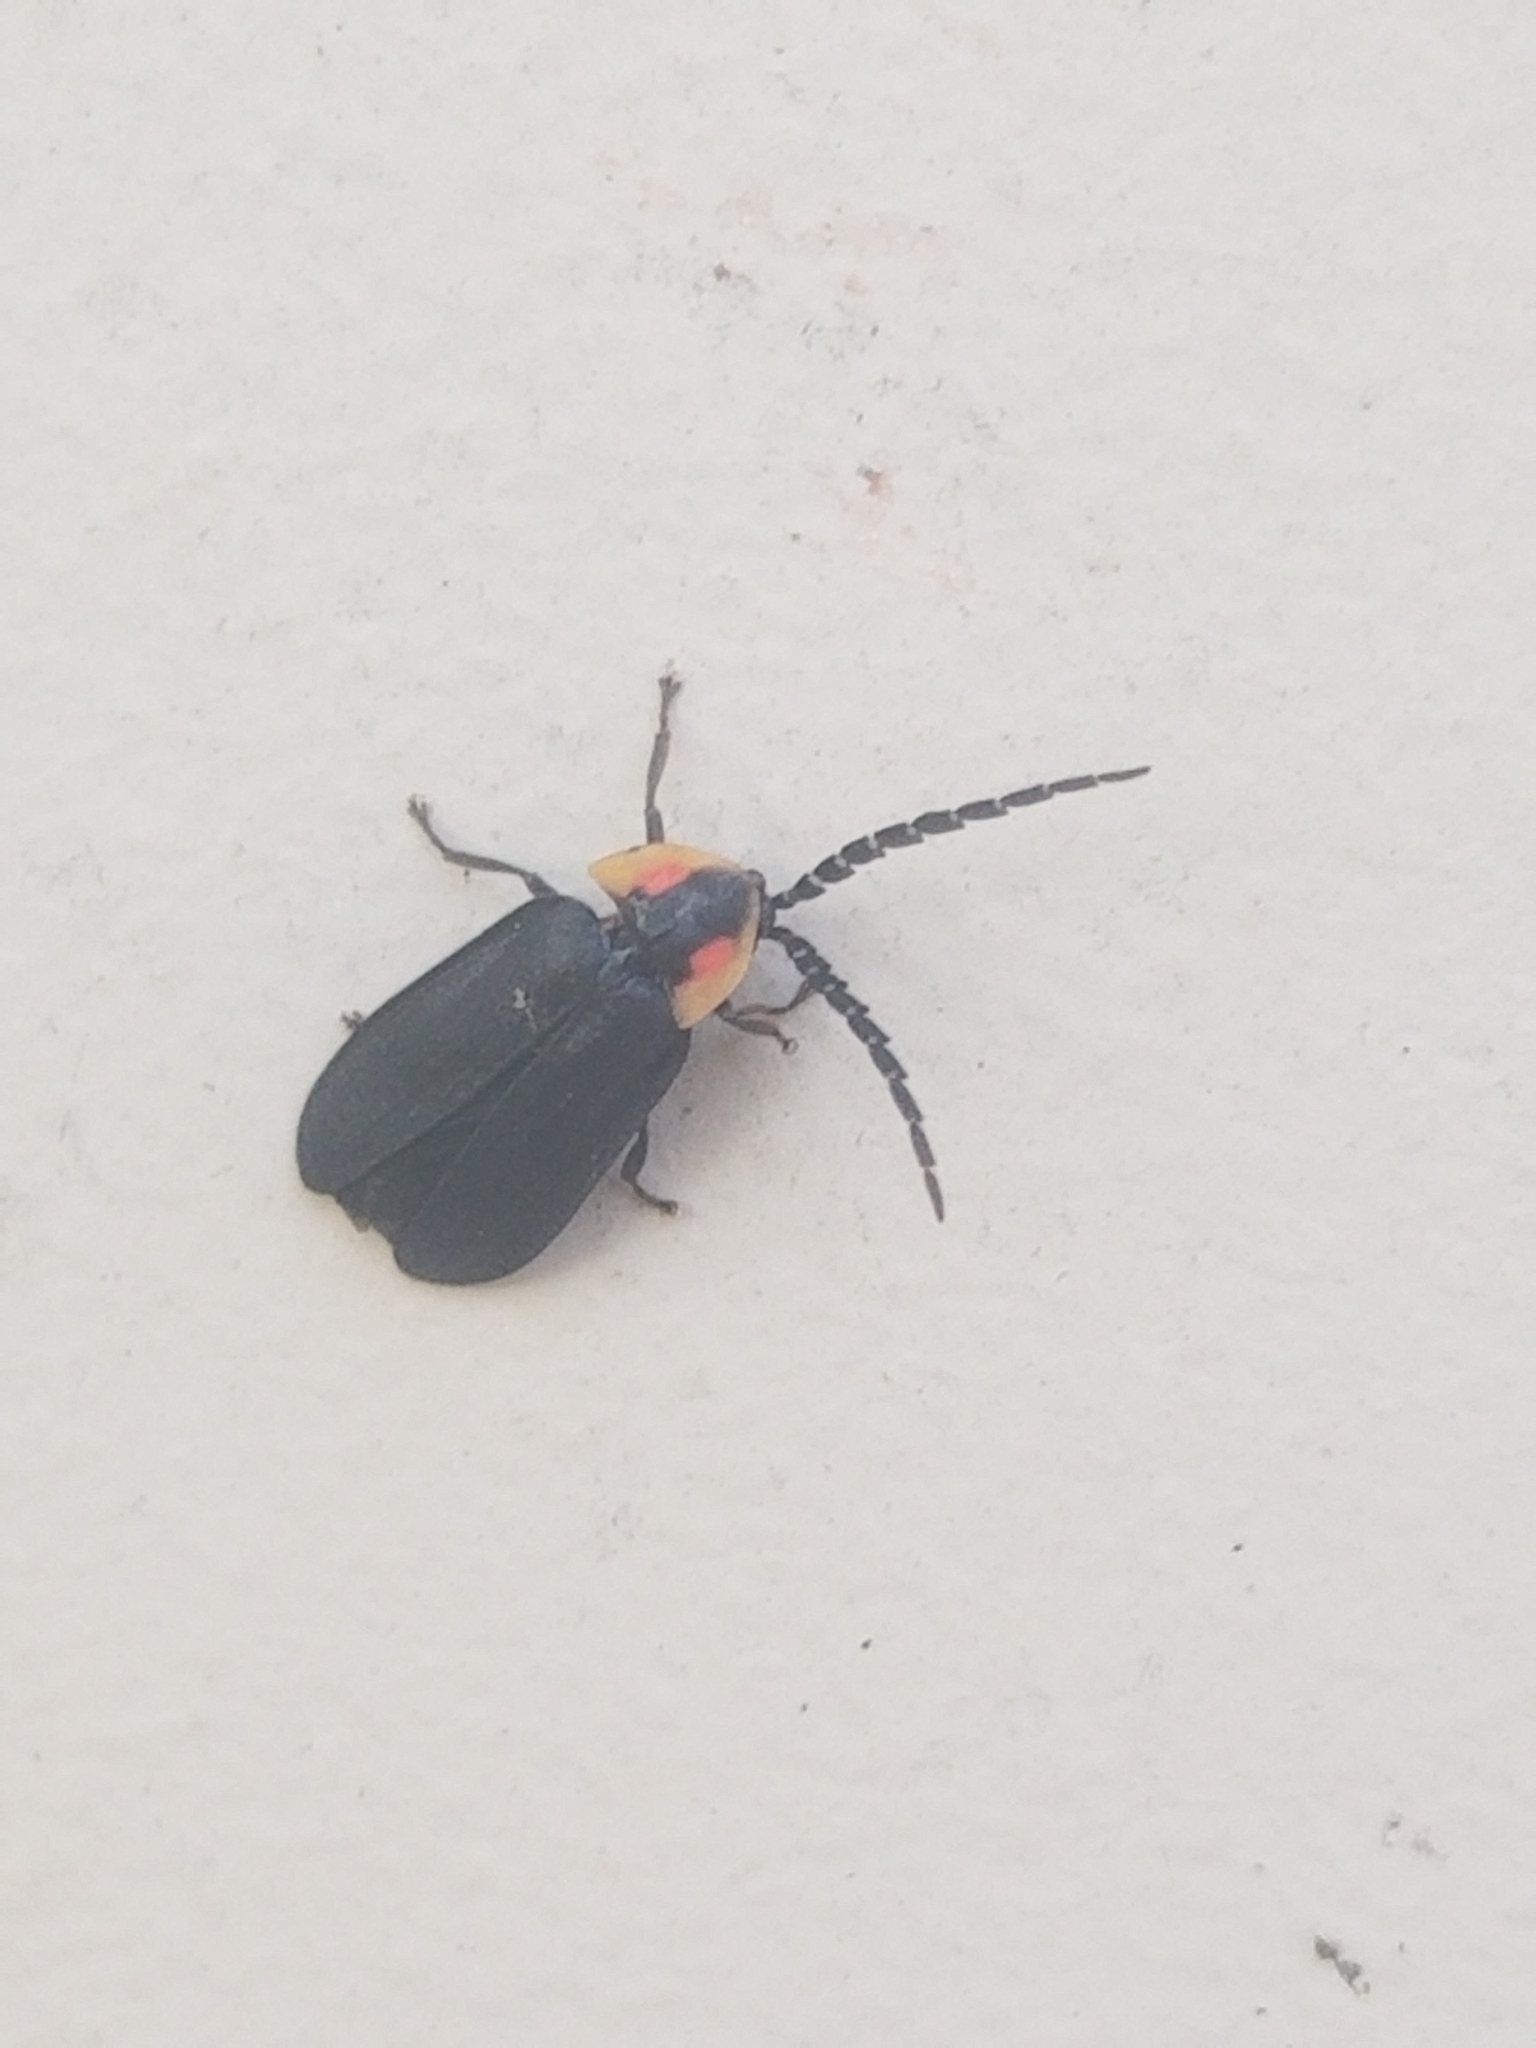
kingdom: Animalia
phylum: Arthropoda
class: Insecta
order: Coleoptera
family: Lampyridae
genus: Lucidota
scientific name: Lucidota atra
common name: Black firefly
